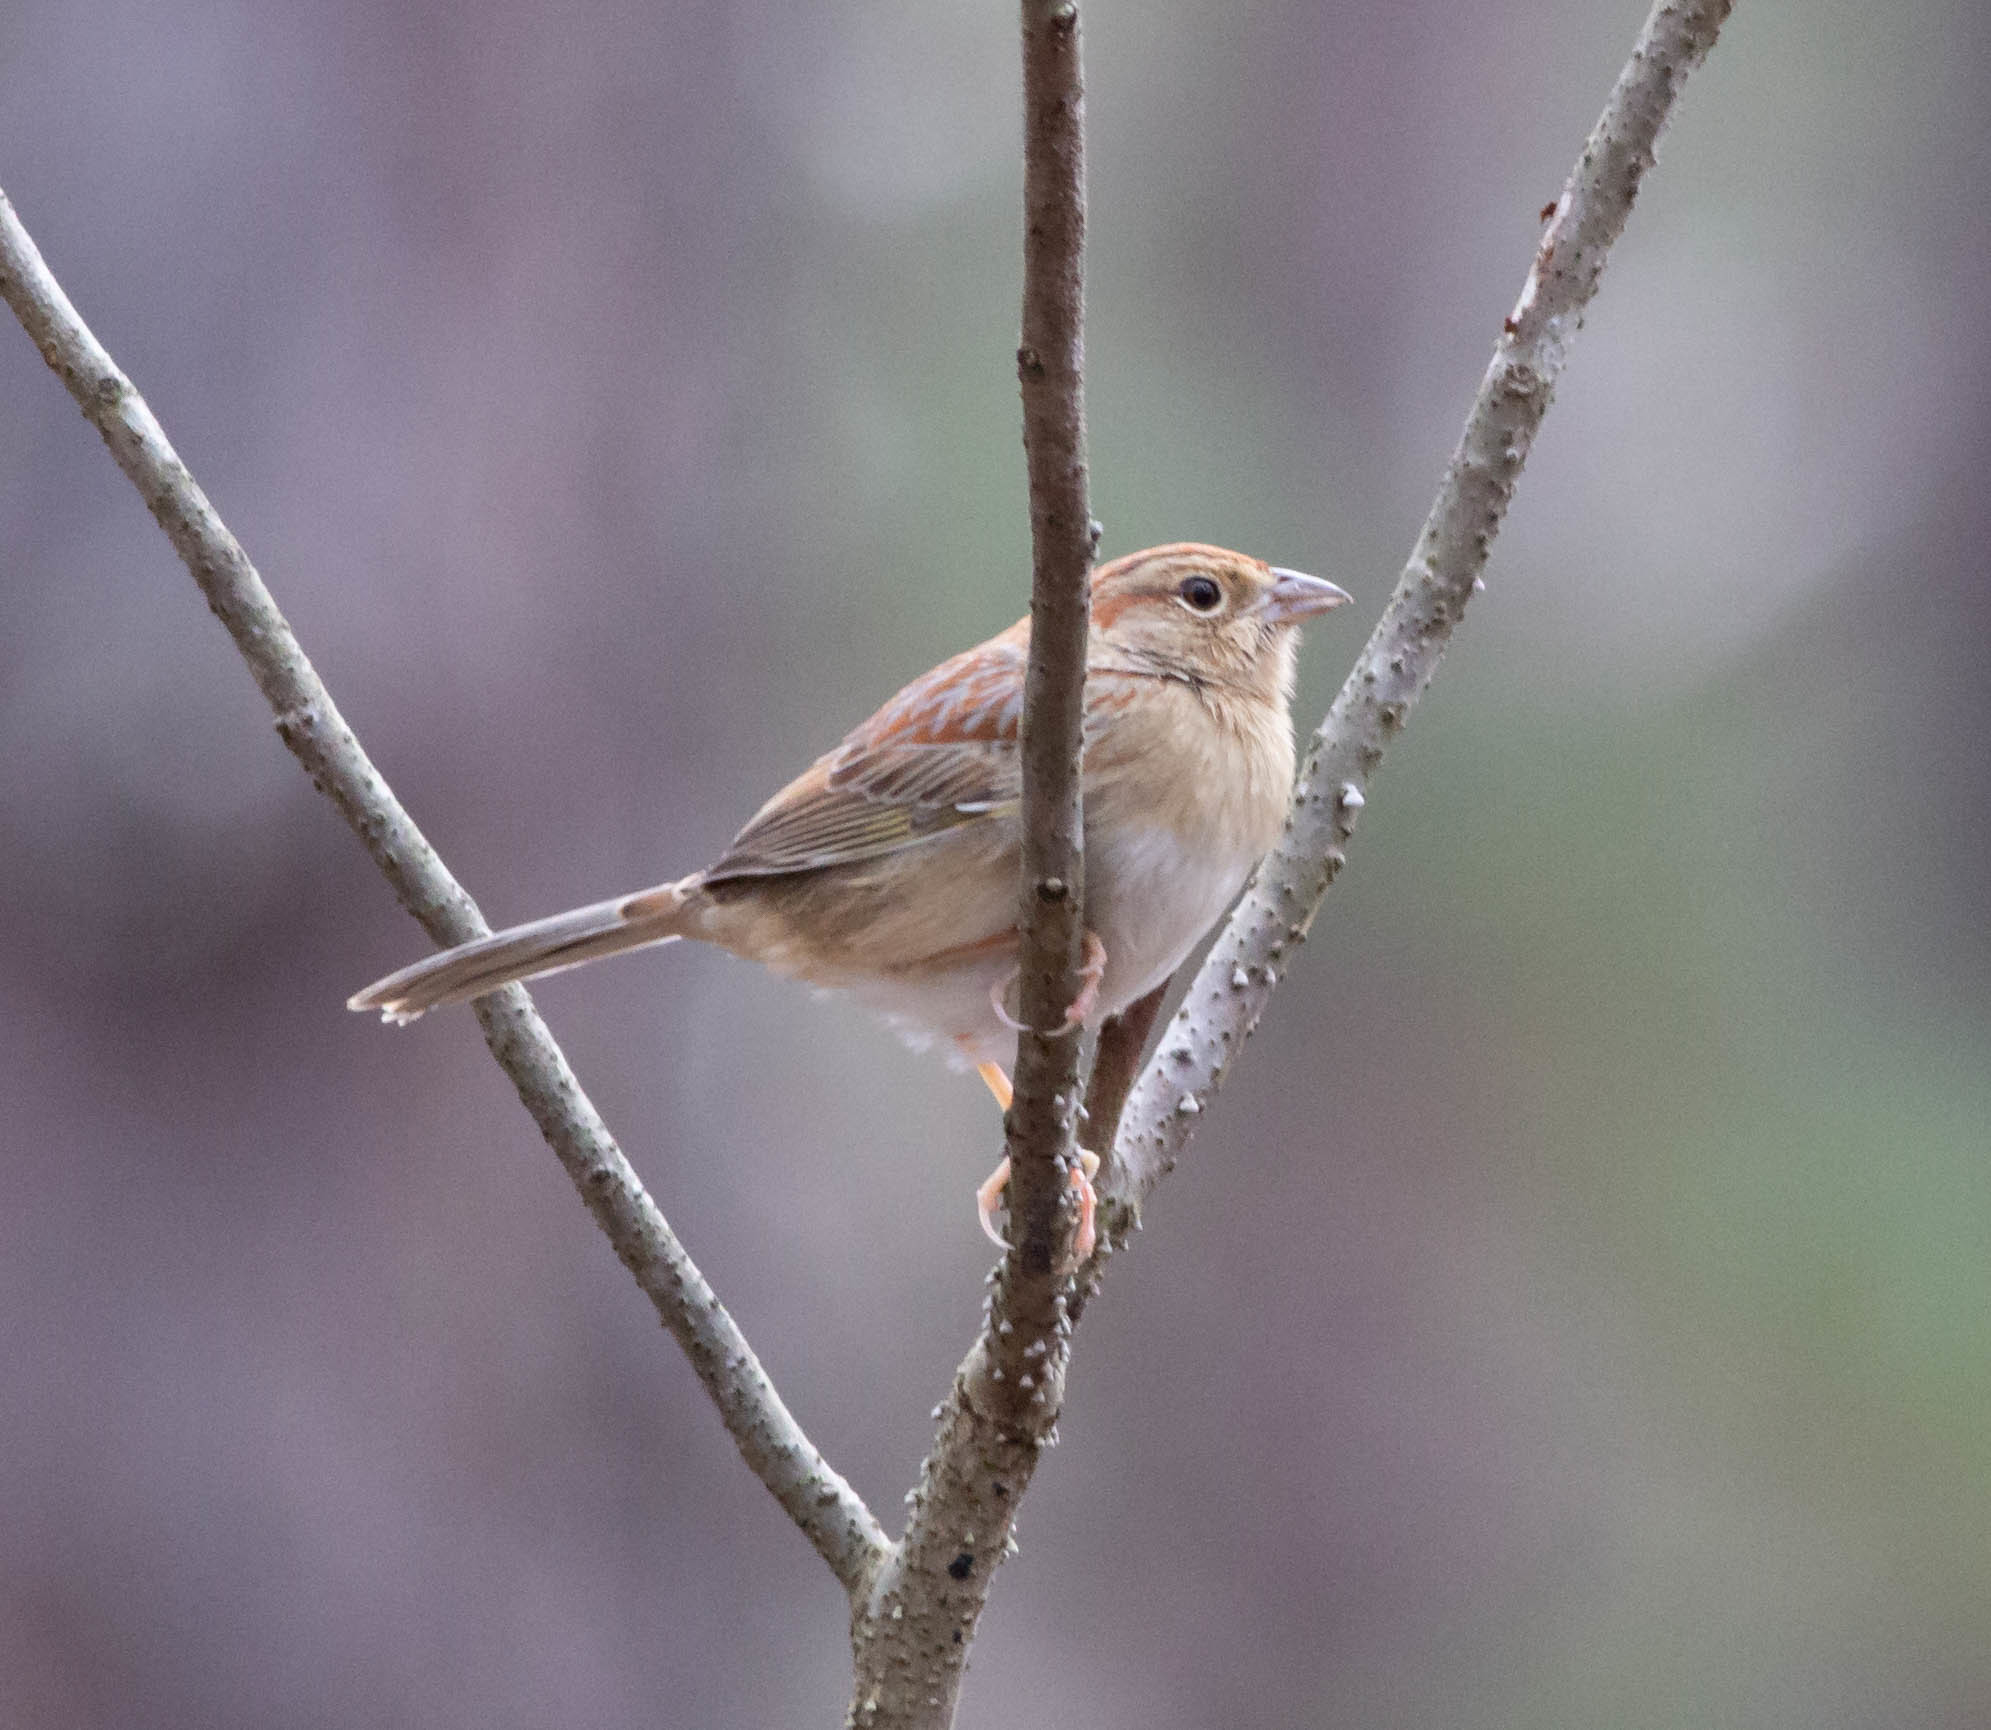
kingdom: Animalia
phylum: Chordata
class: Aves
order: Passeriformes
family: Passerellidae
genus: Peucaea
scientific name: Peucaea aestivalis
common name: Bachman's sparrow
